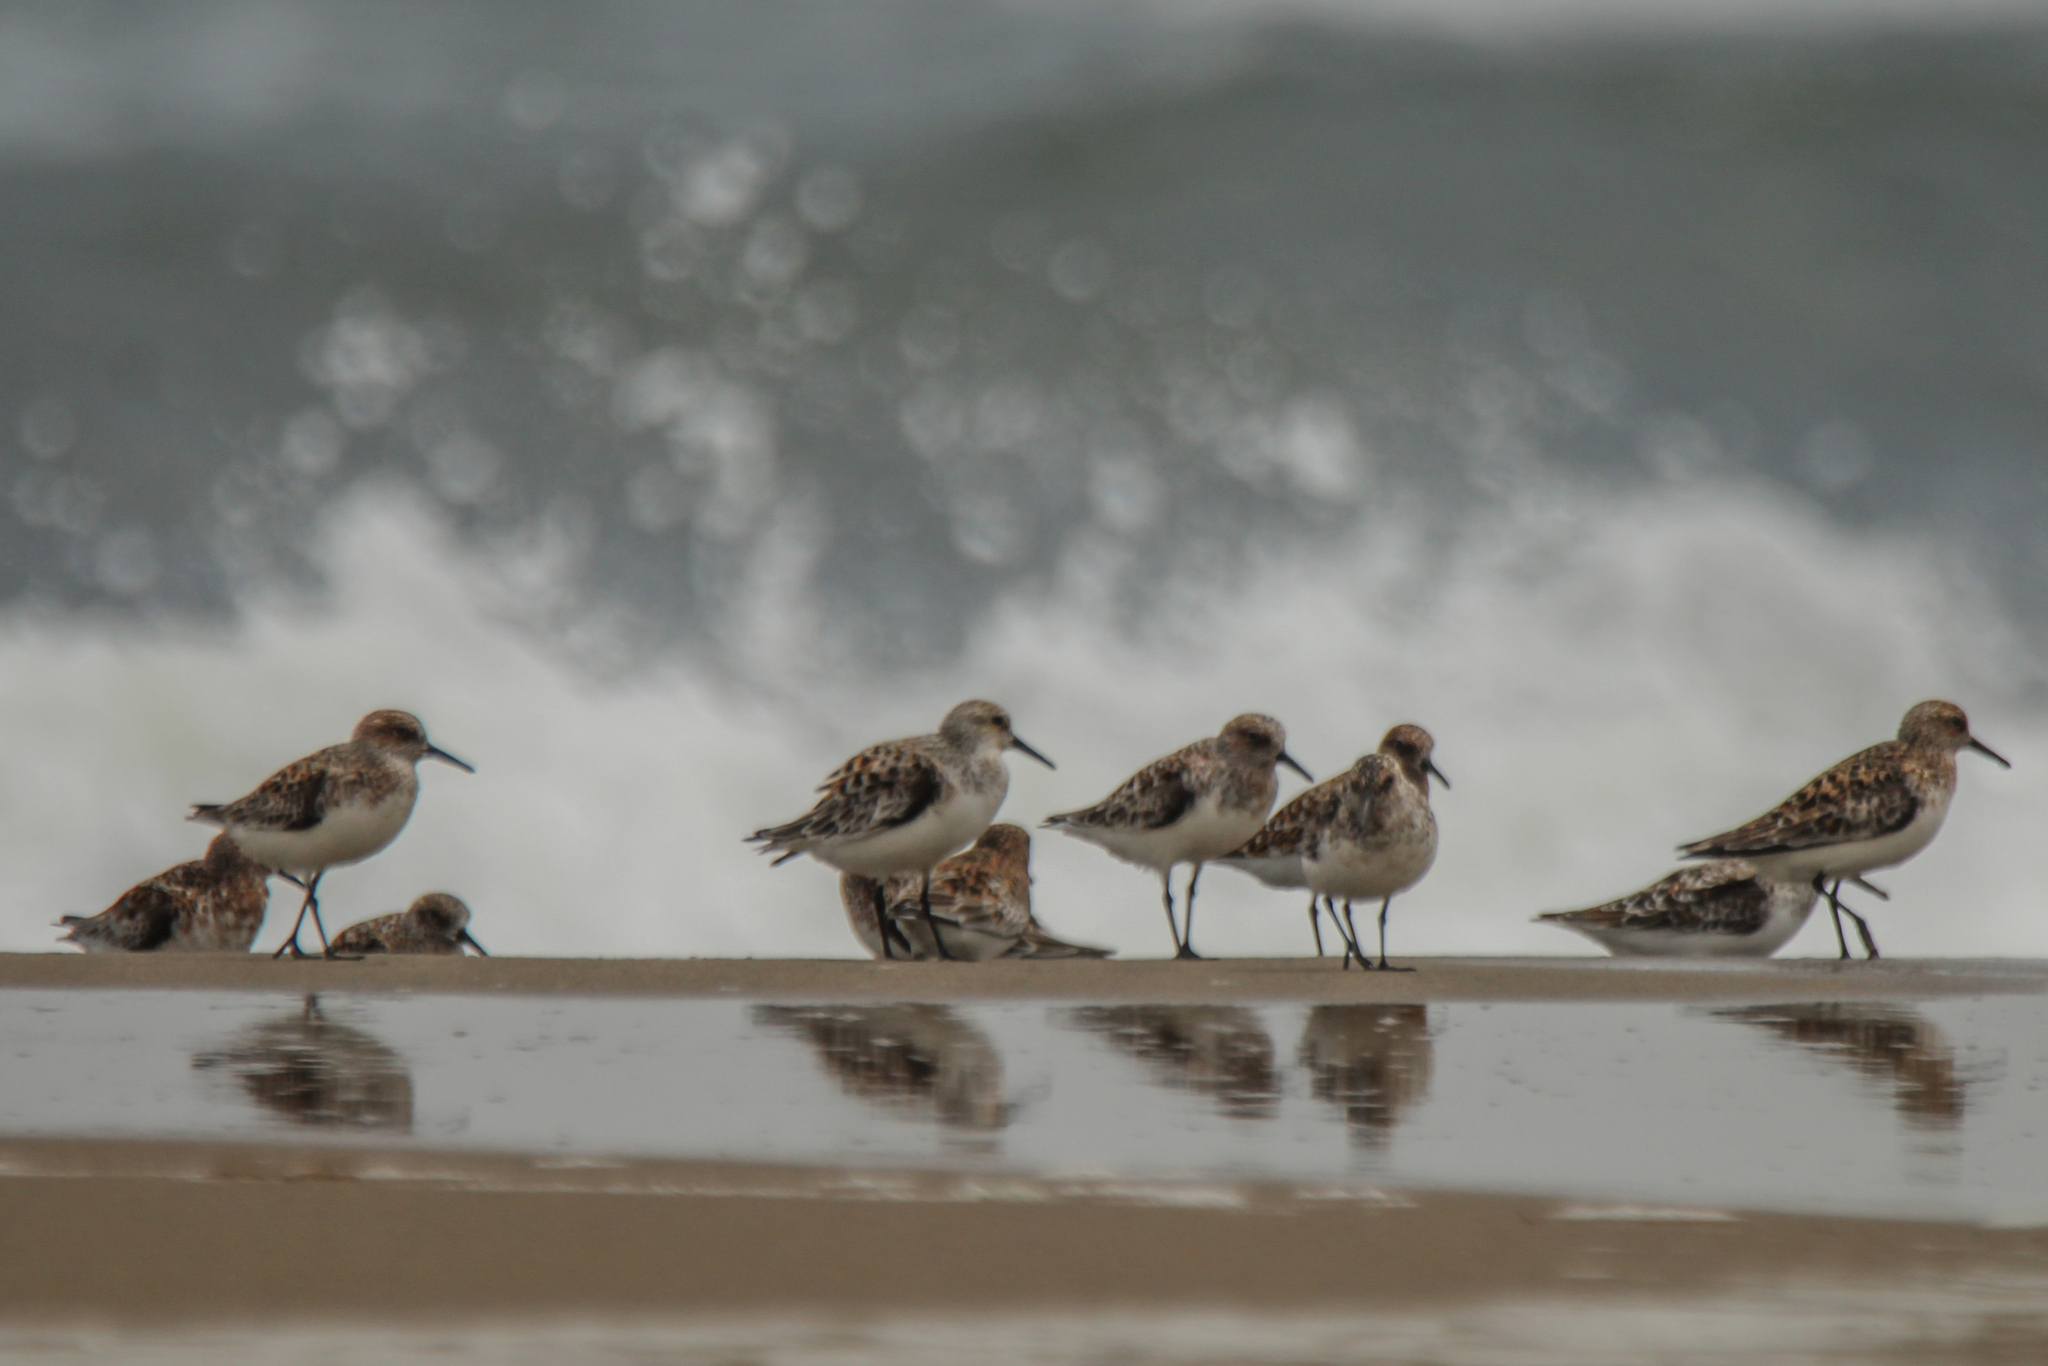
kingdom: Animalia
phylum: Chordata
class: Aves
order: Charadriiformes
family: Scolopacidae
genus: Calidris
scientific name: Calidris alba
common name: Sanderling
